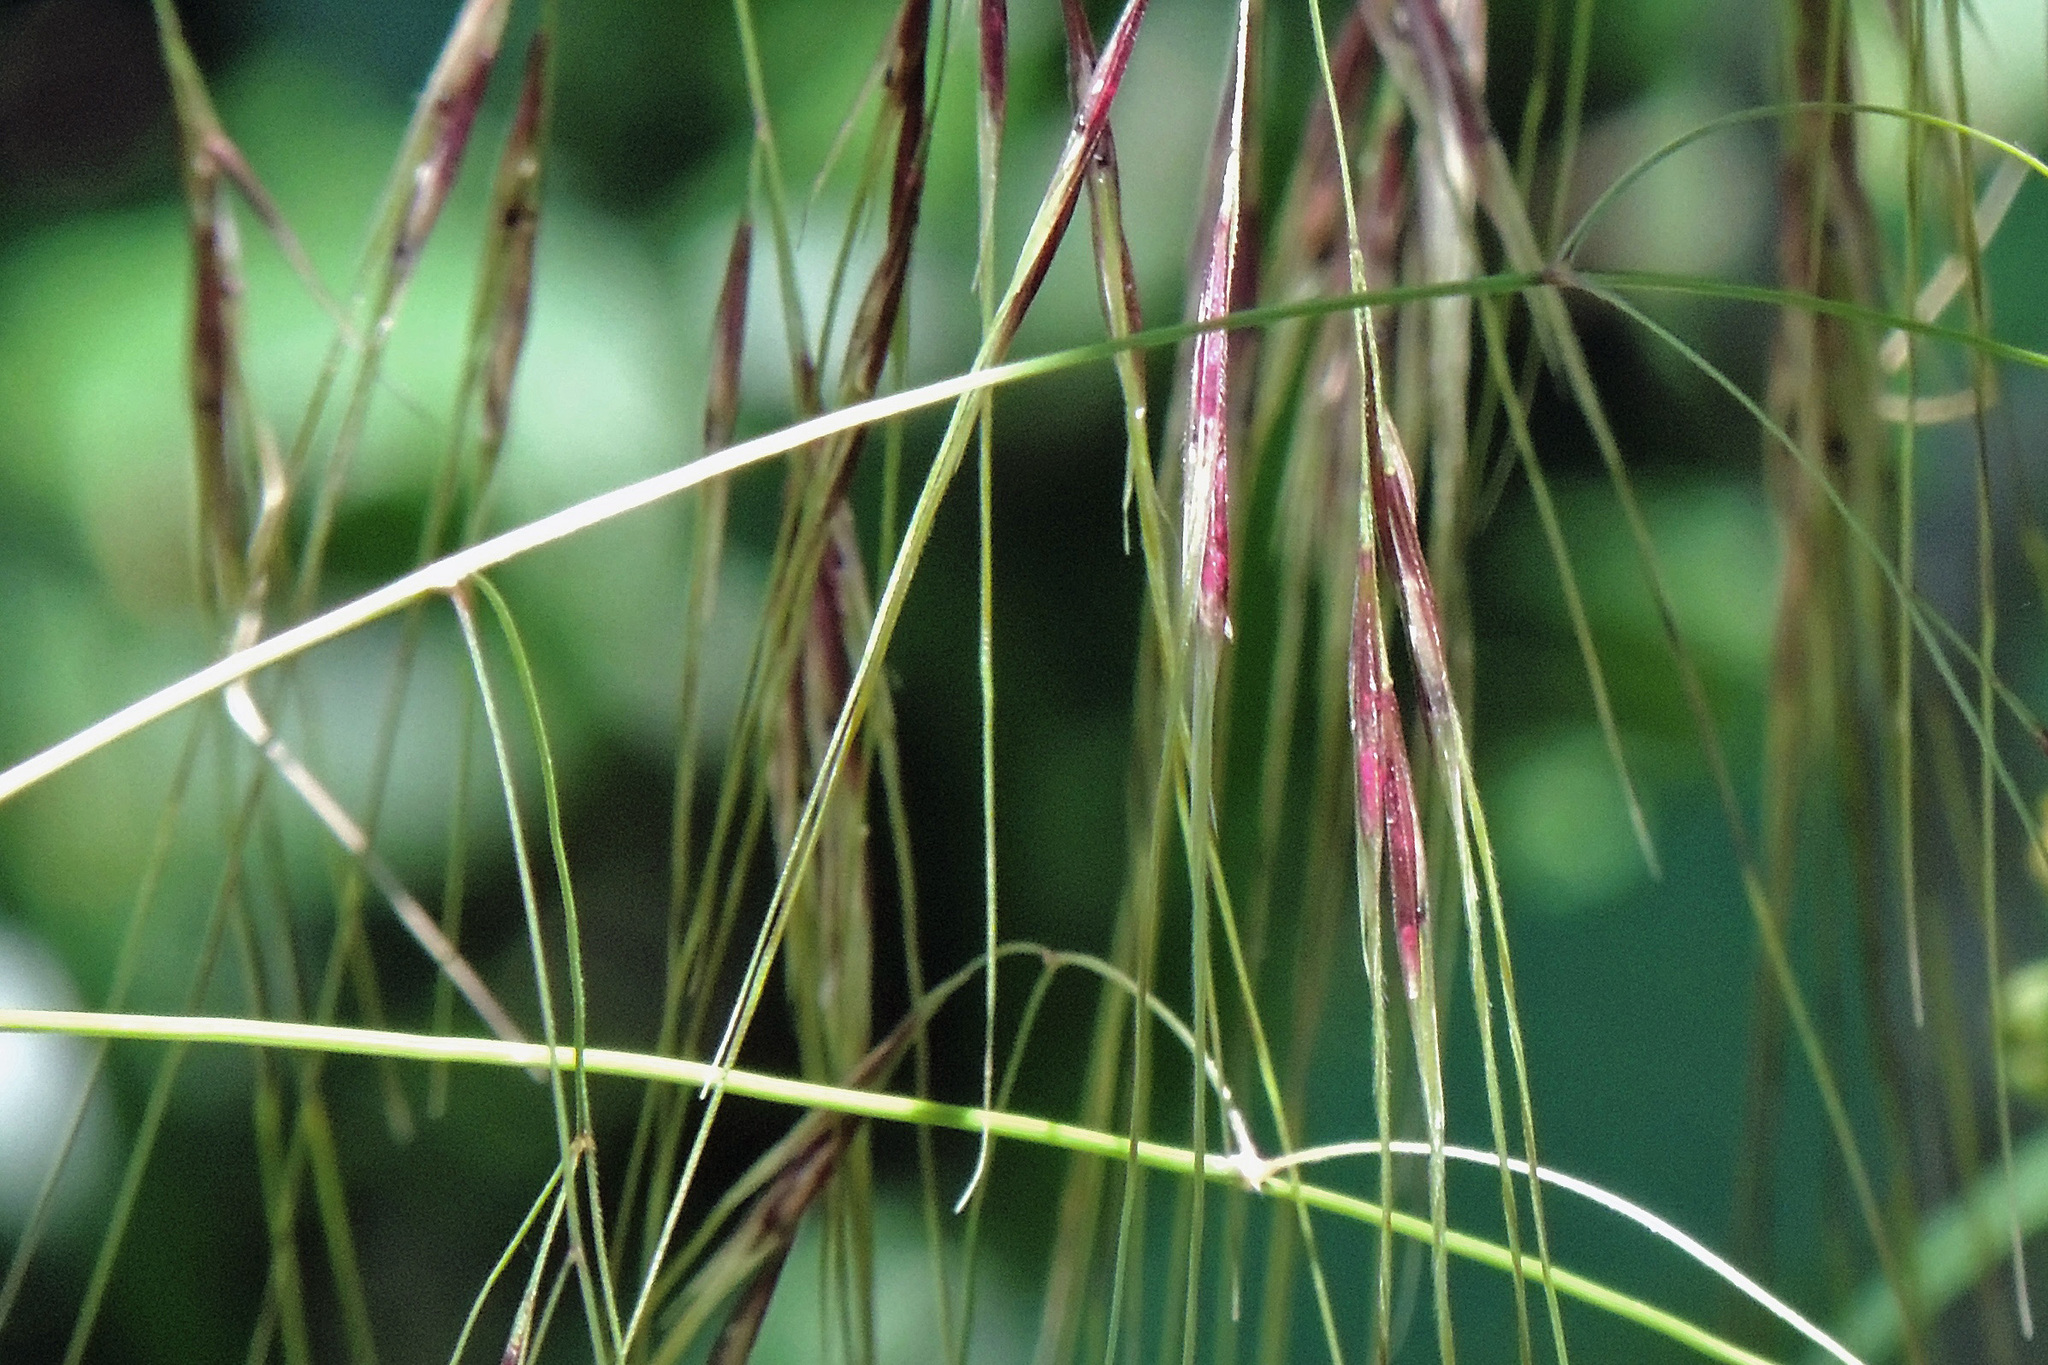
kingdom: Plantae
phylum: Tracheophyta
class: Liliopsida
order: Poales
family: Poaceae
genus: Nassella
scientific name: Nassella neesiana
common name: American needle-grass
